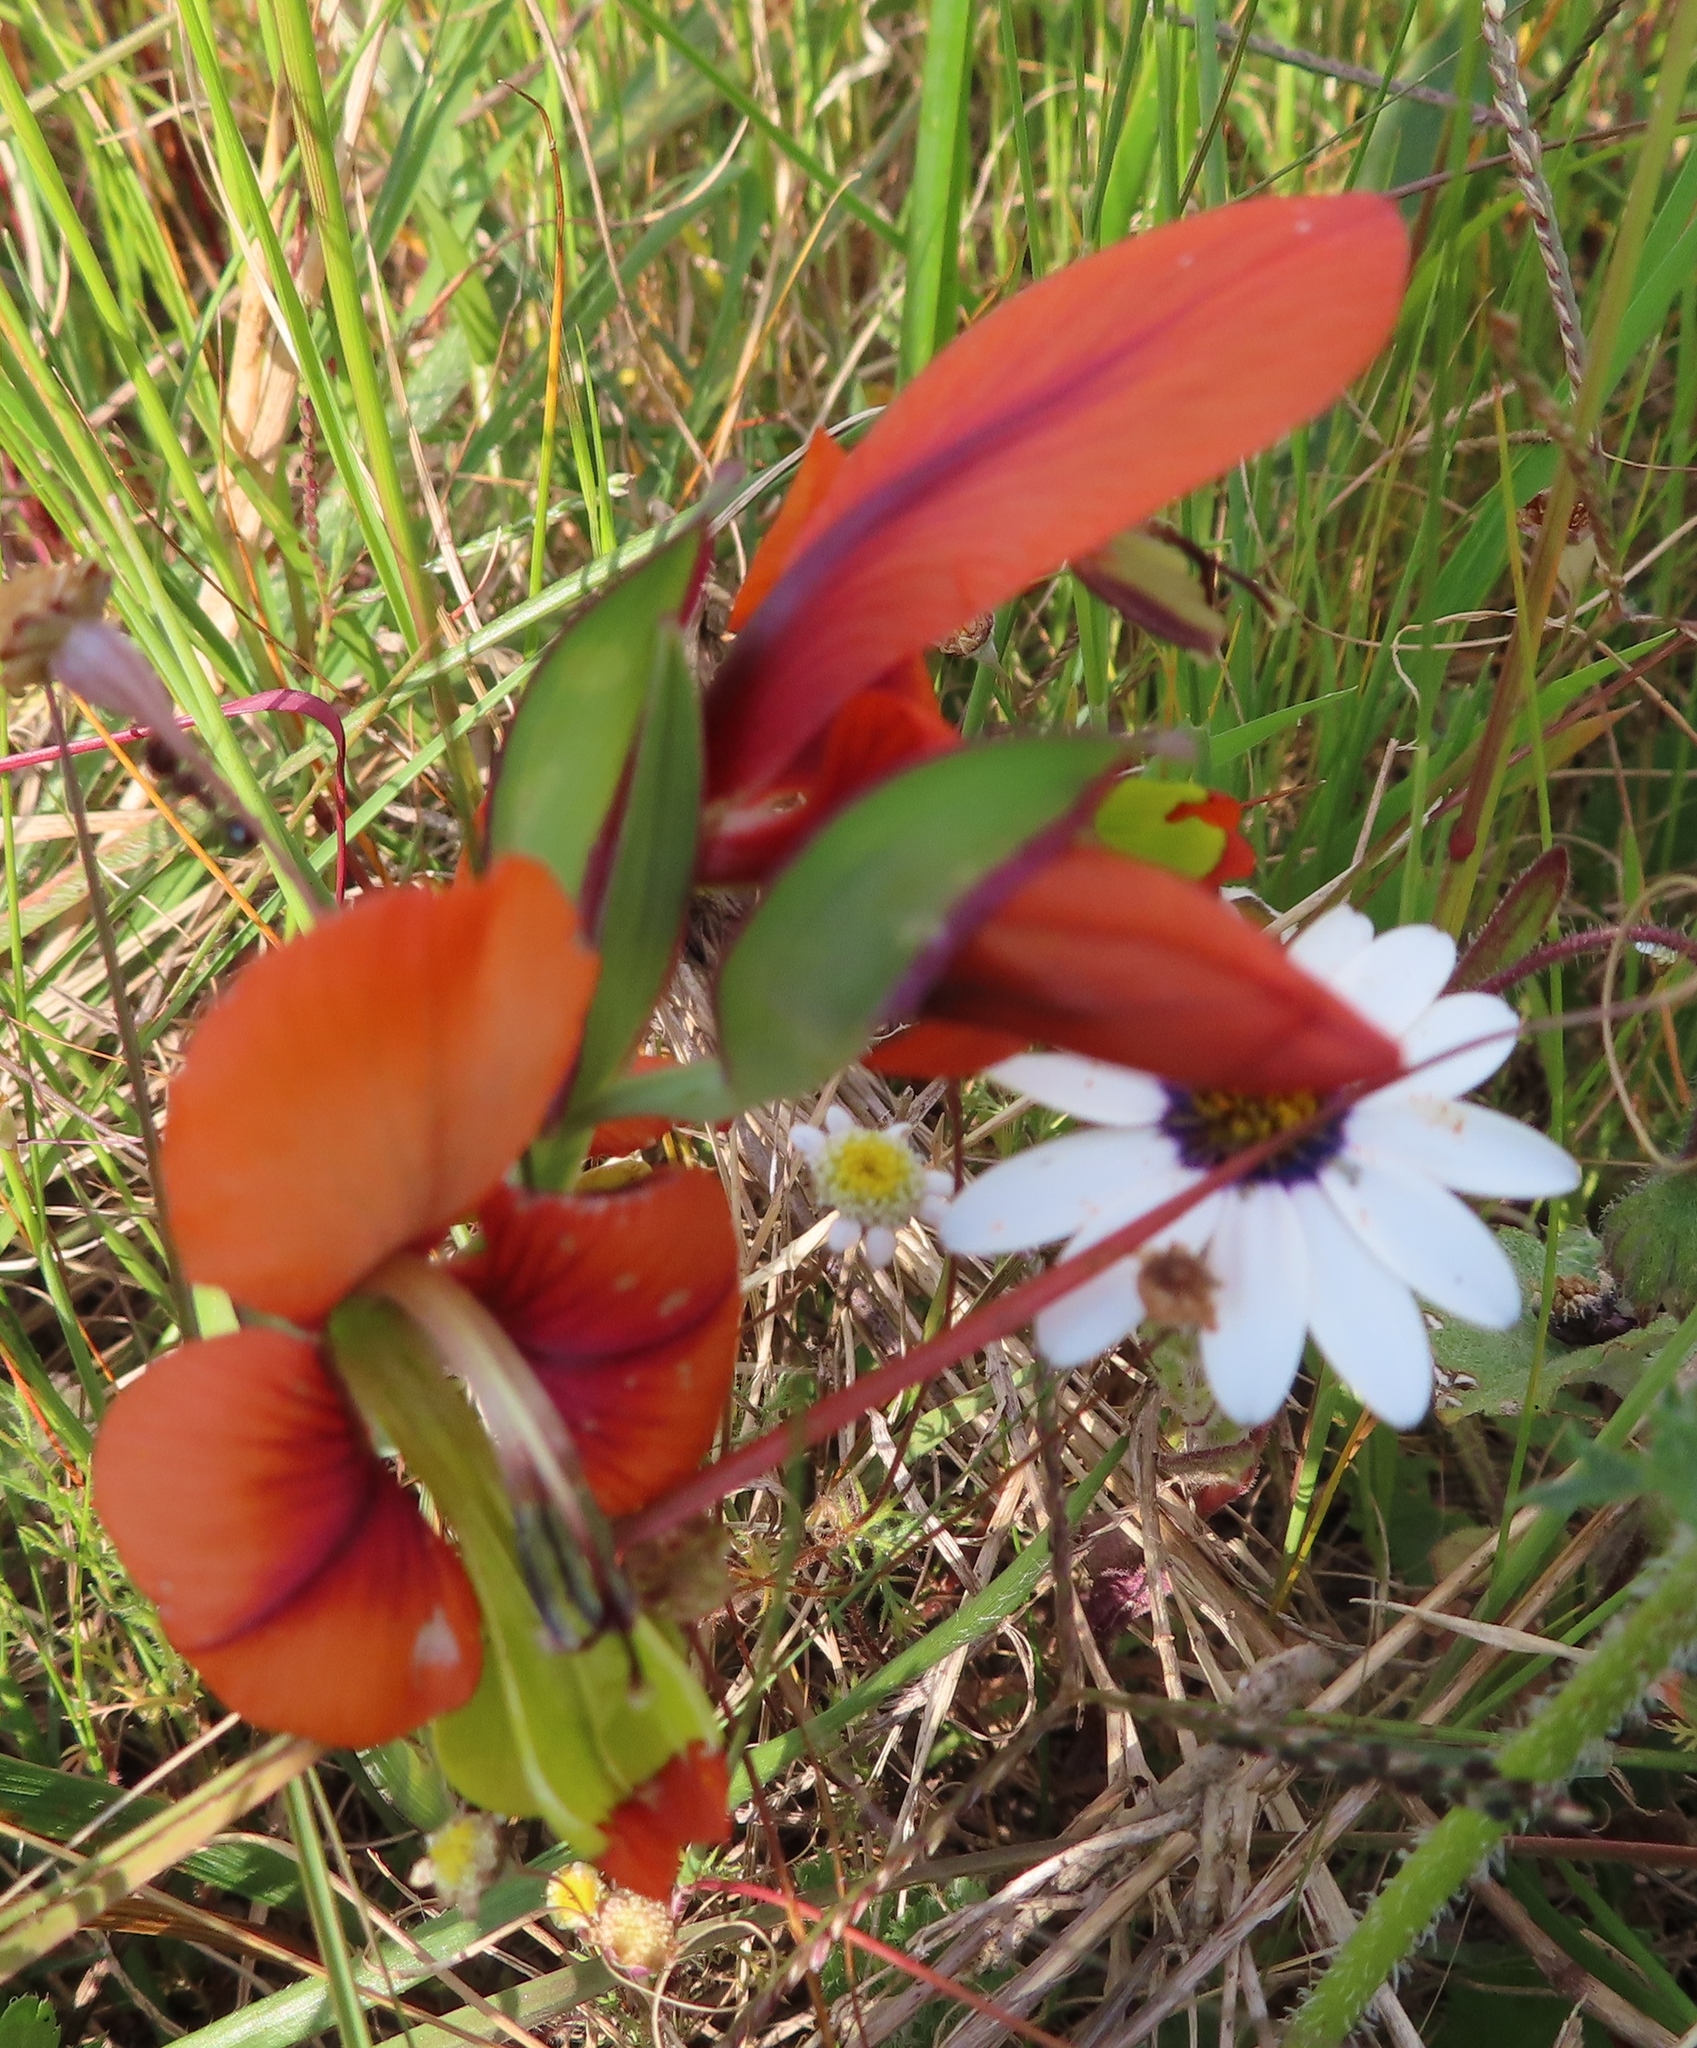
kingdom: Plantae
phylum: Tracheophyta
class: Liliopsida
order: Asparagales
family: Iridaceae
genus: Gladiolus
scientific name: Gladiolus alatus
